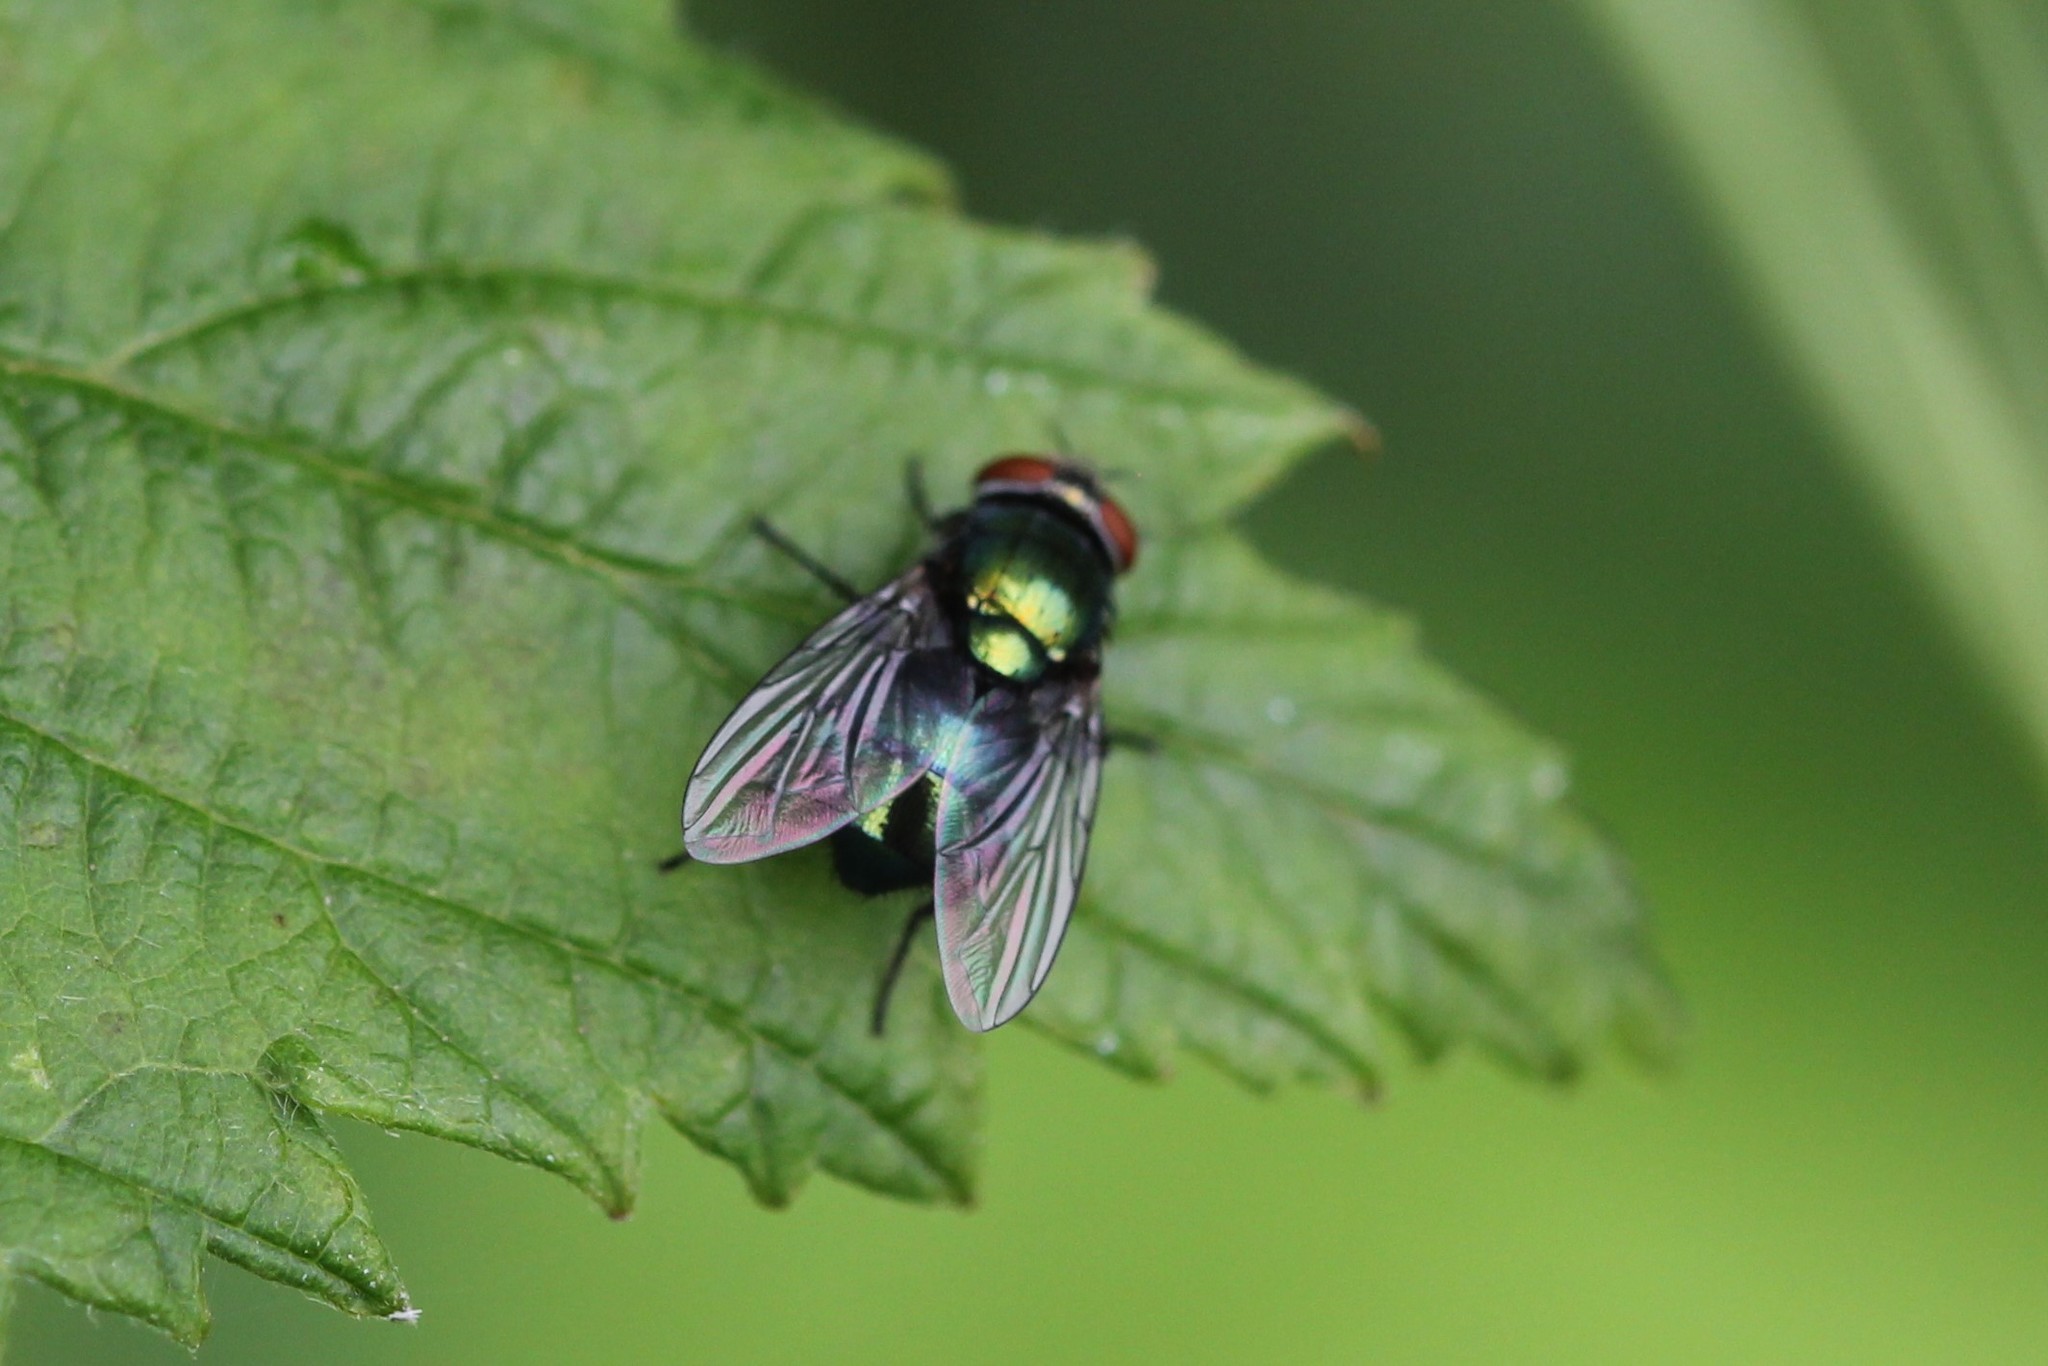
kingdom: Animalia
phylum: Arthropoda
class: Insecta
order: Diptera
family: Calliphoridae
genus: Lucilia
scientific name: Lucilia caeruleiviridis
